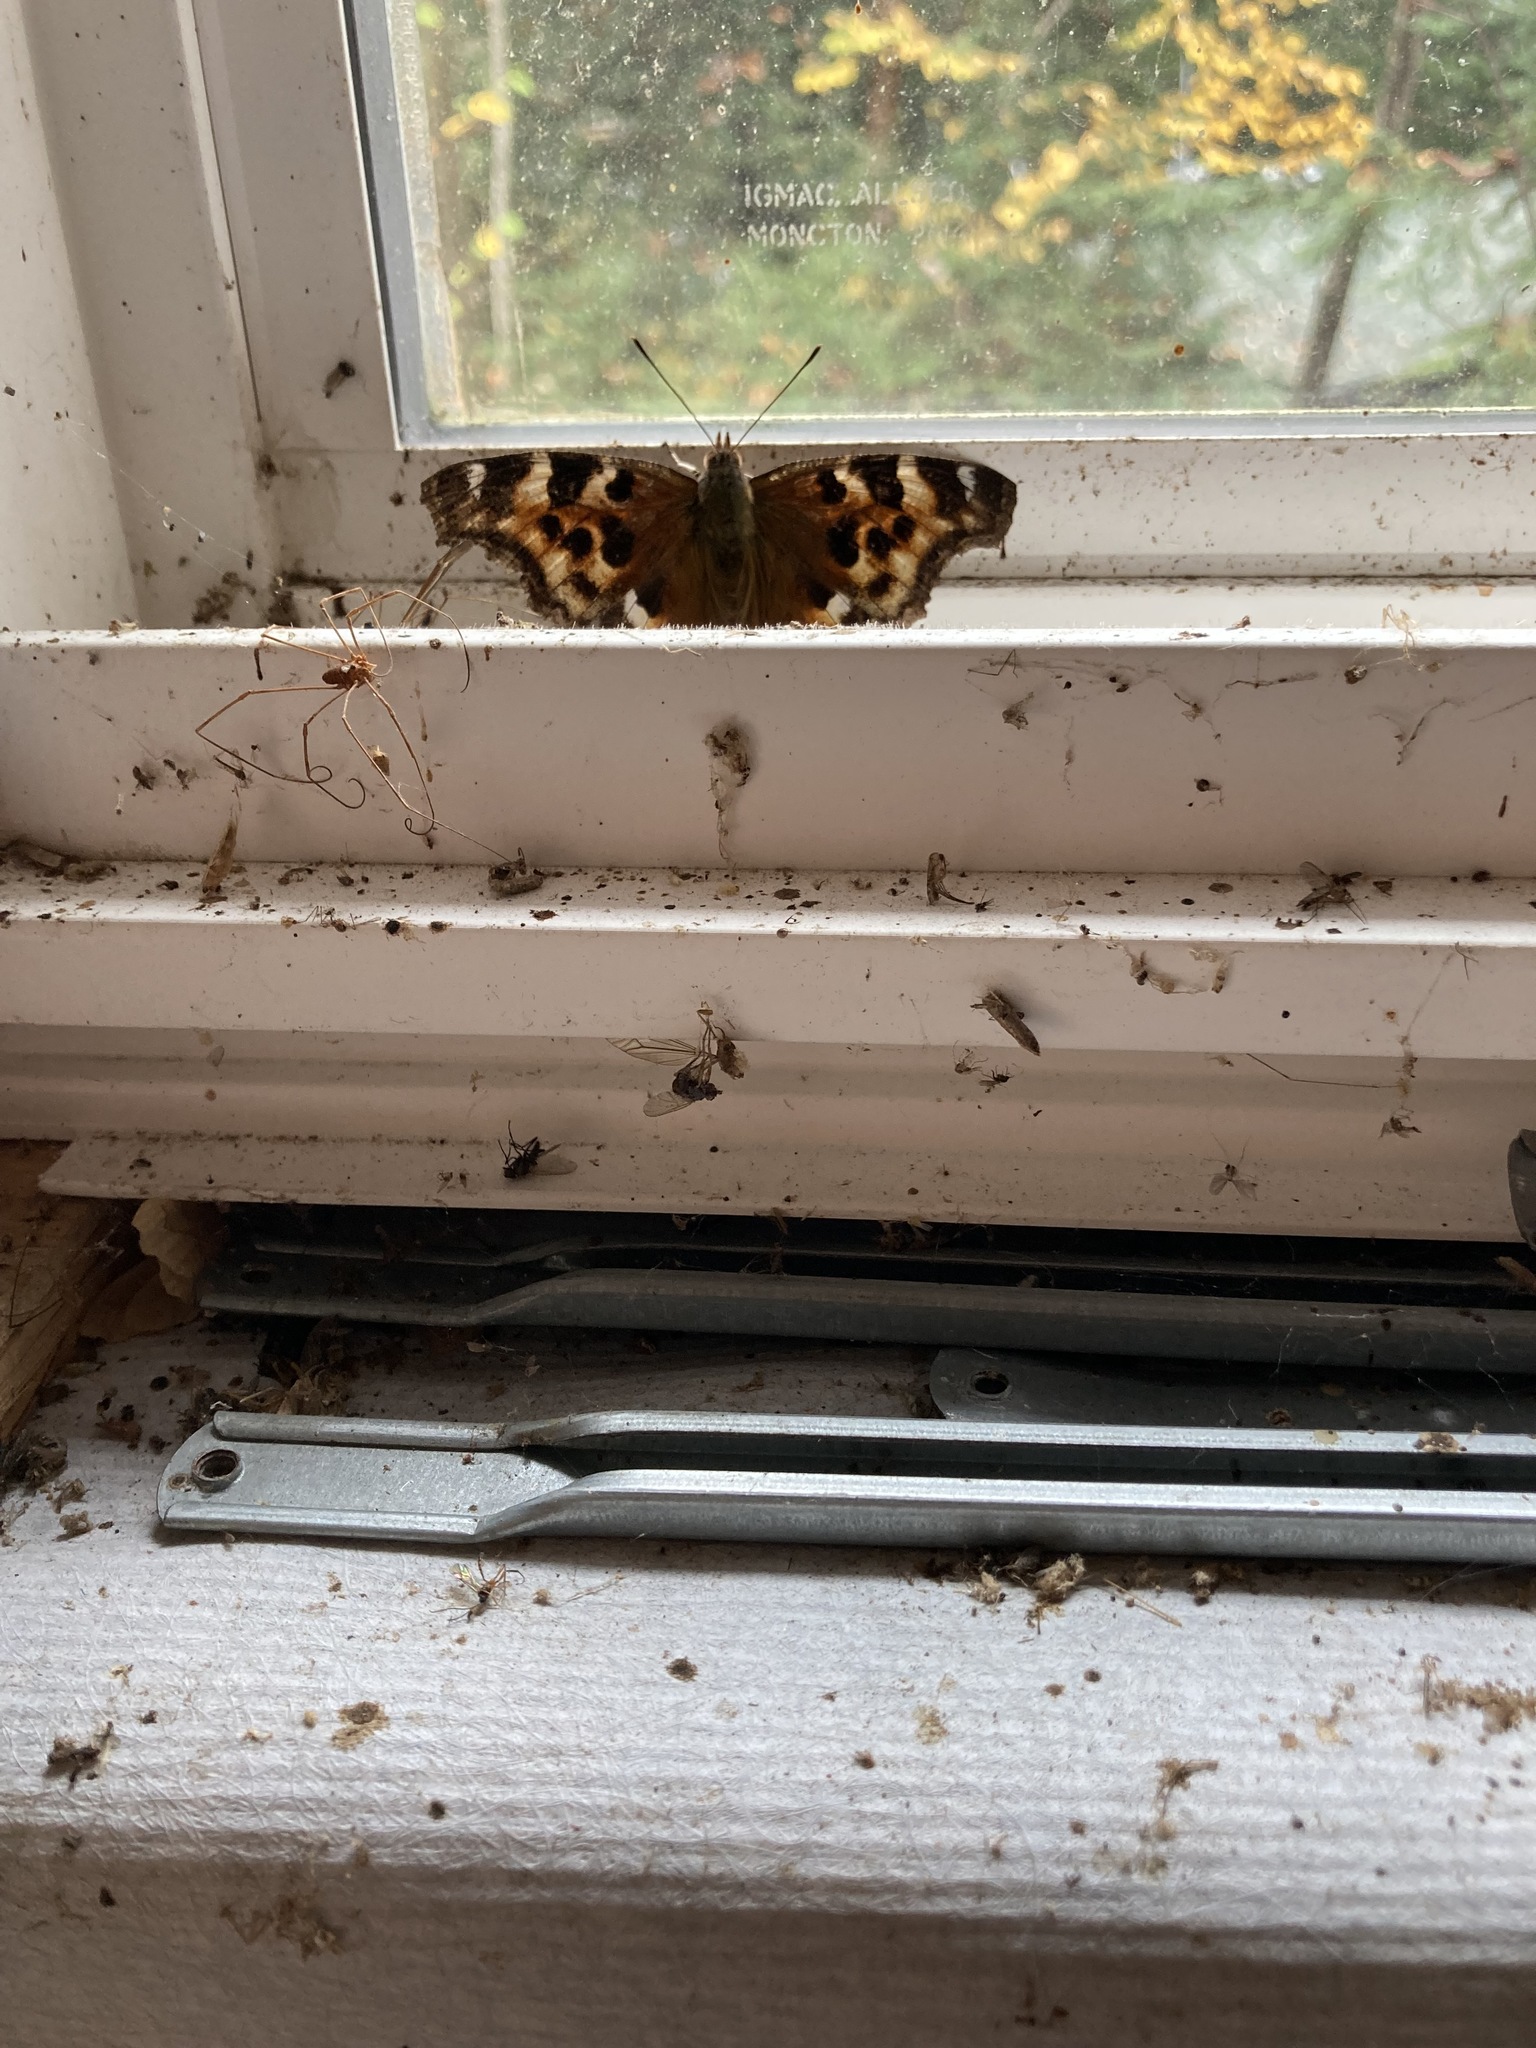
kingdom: Animalia
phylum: Arthropoda
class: Insecta
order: Lepidoptera
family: Nymphalidae
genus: Polygonia
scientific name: Polygonia vaualbum
